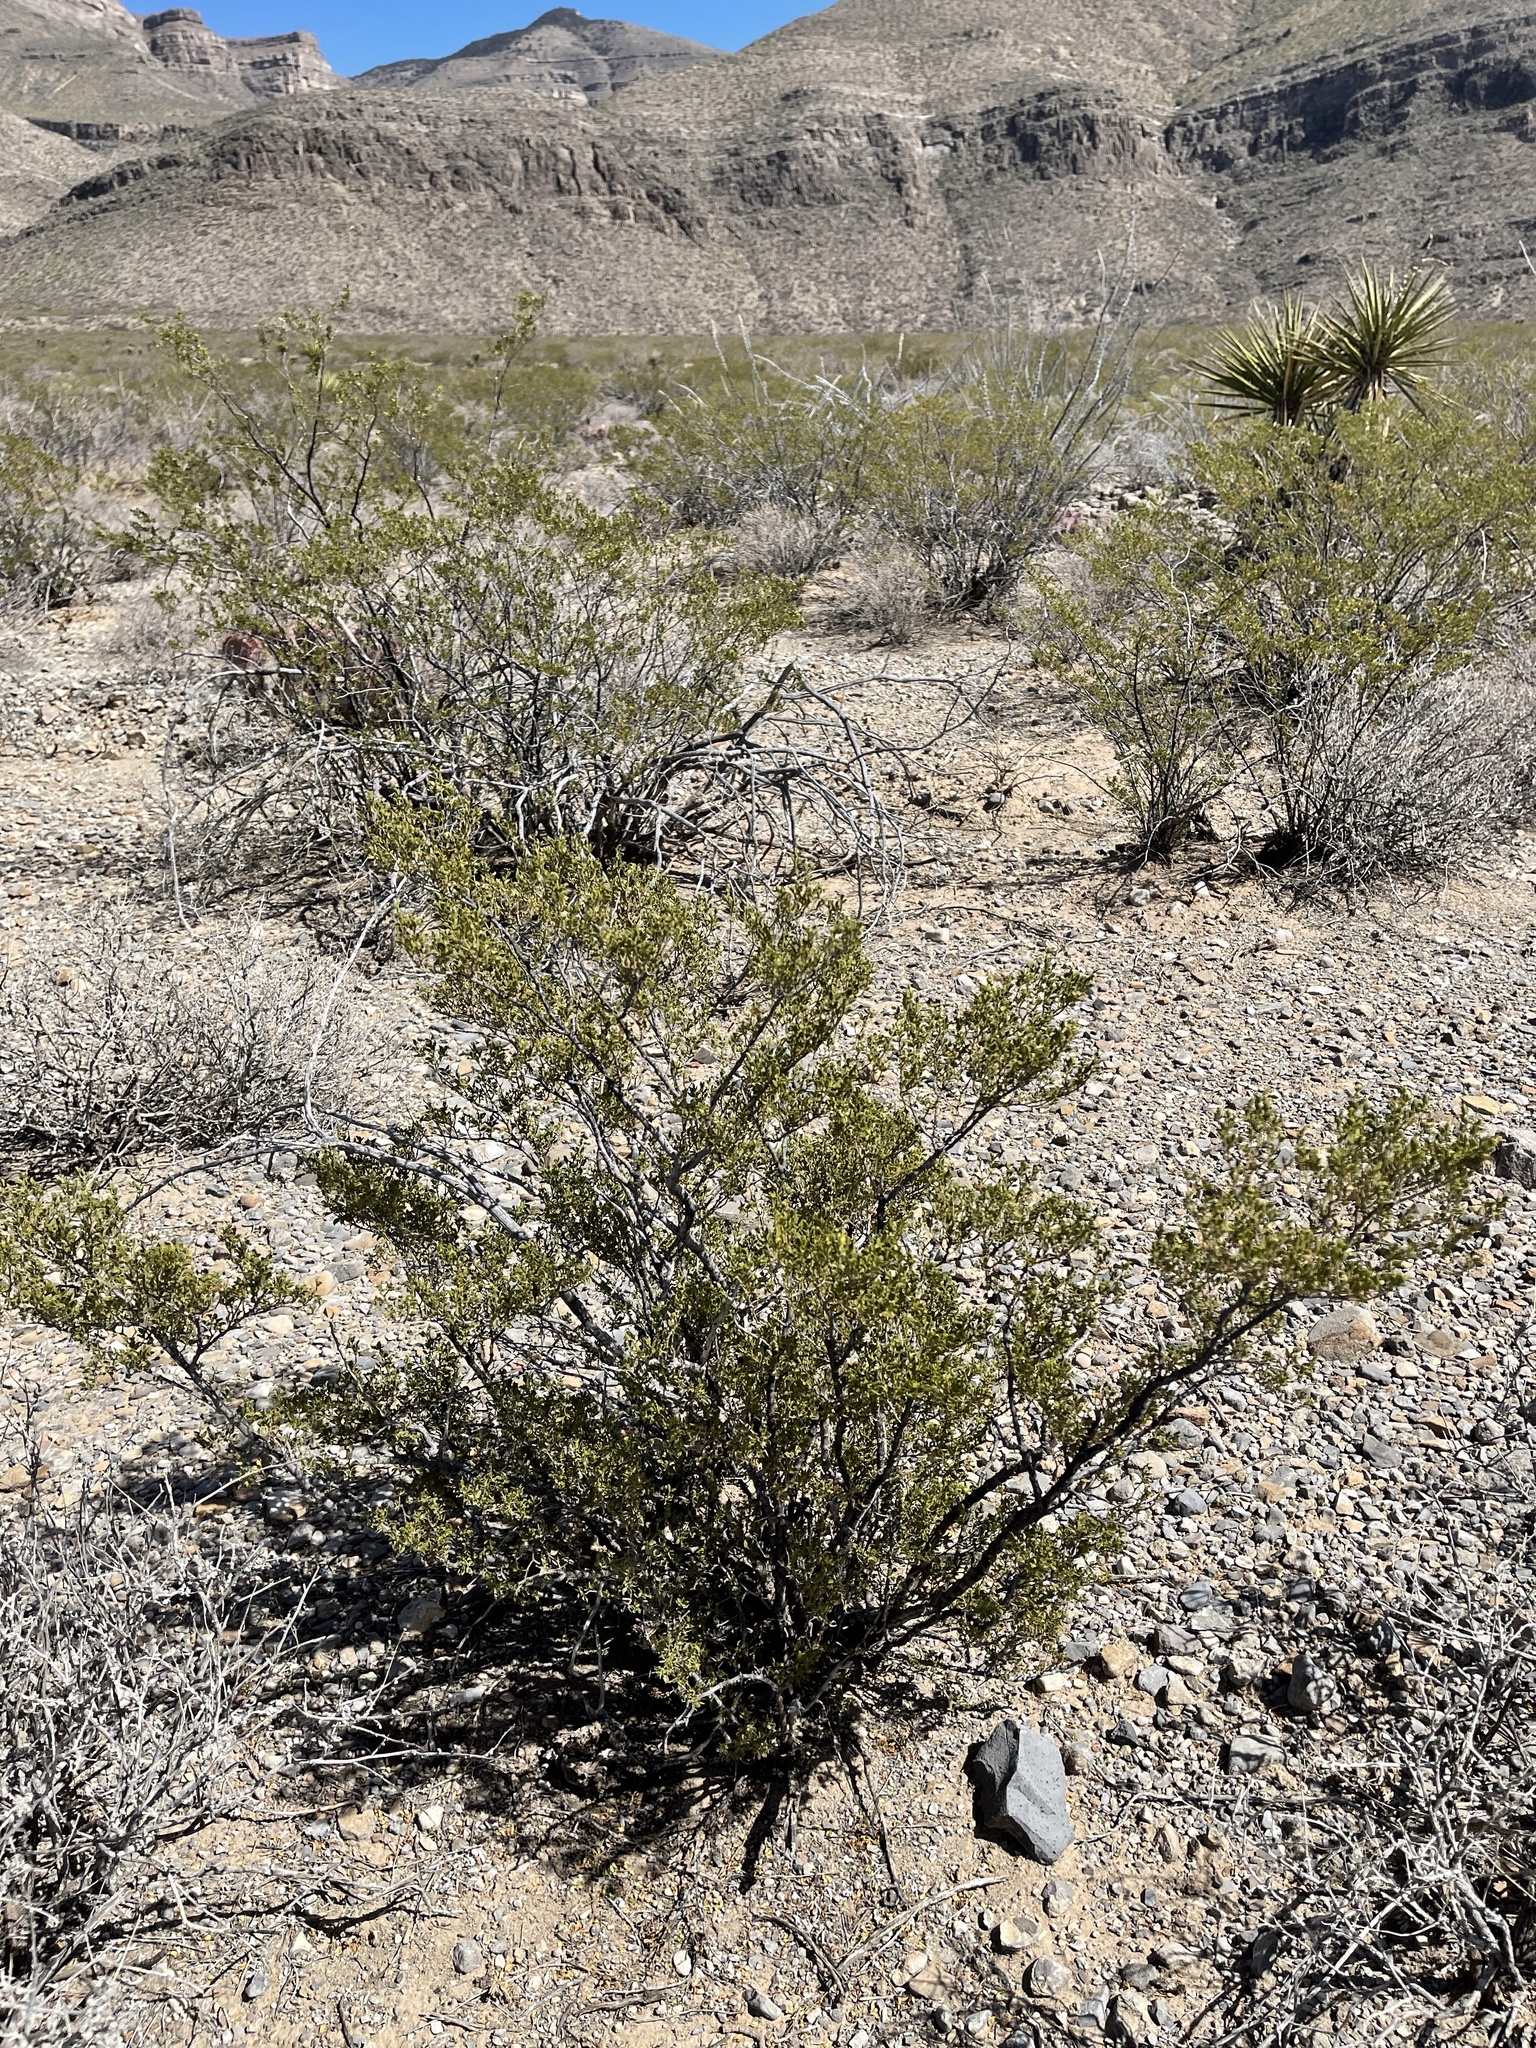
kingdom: Plantae
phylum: Tracheophyta
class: Magnoliopsida
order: Zygophyllales
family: Zygophyllaceae
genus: Larrea
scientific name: Larrea tridentata
